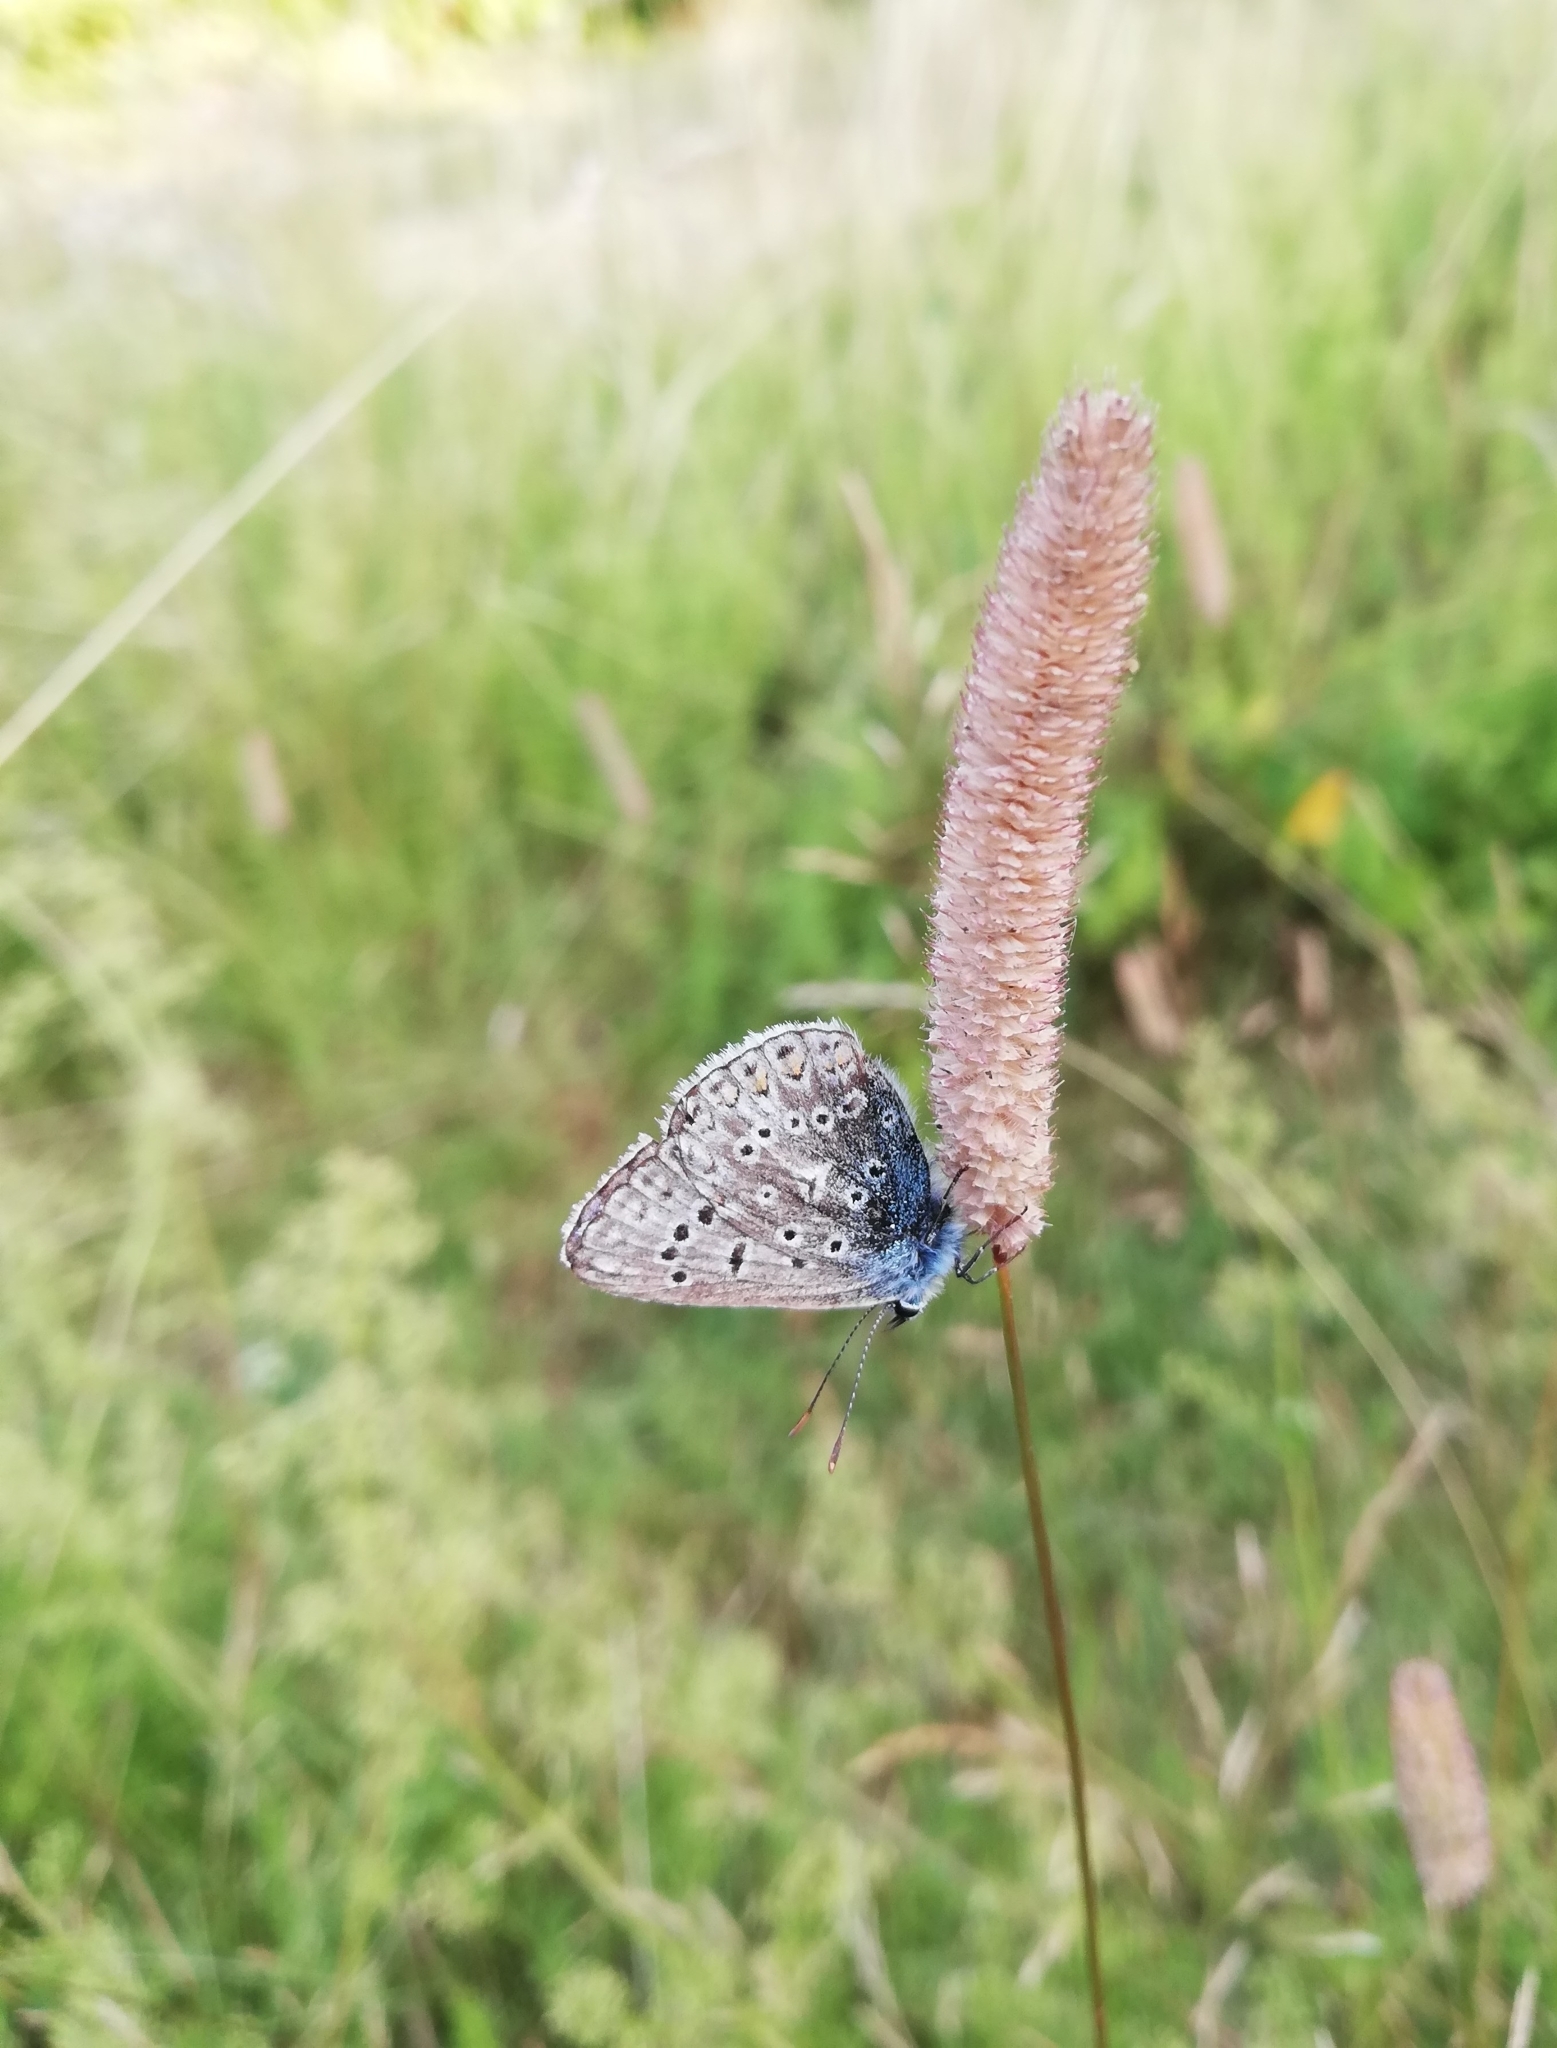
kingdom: Animalia
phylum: Arthropoda
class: Insecta
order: Lepidoptera
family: Lycaenidae
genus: Polyommatus
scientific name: Polyommatus icarus
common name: Common blue
